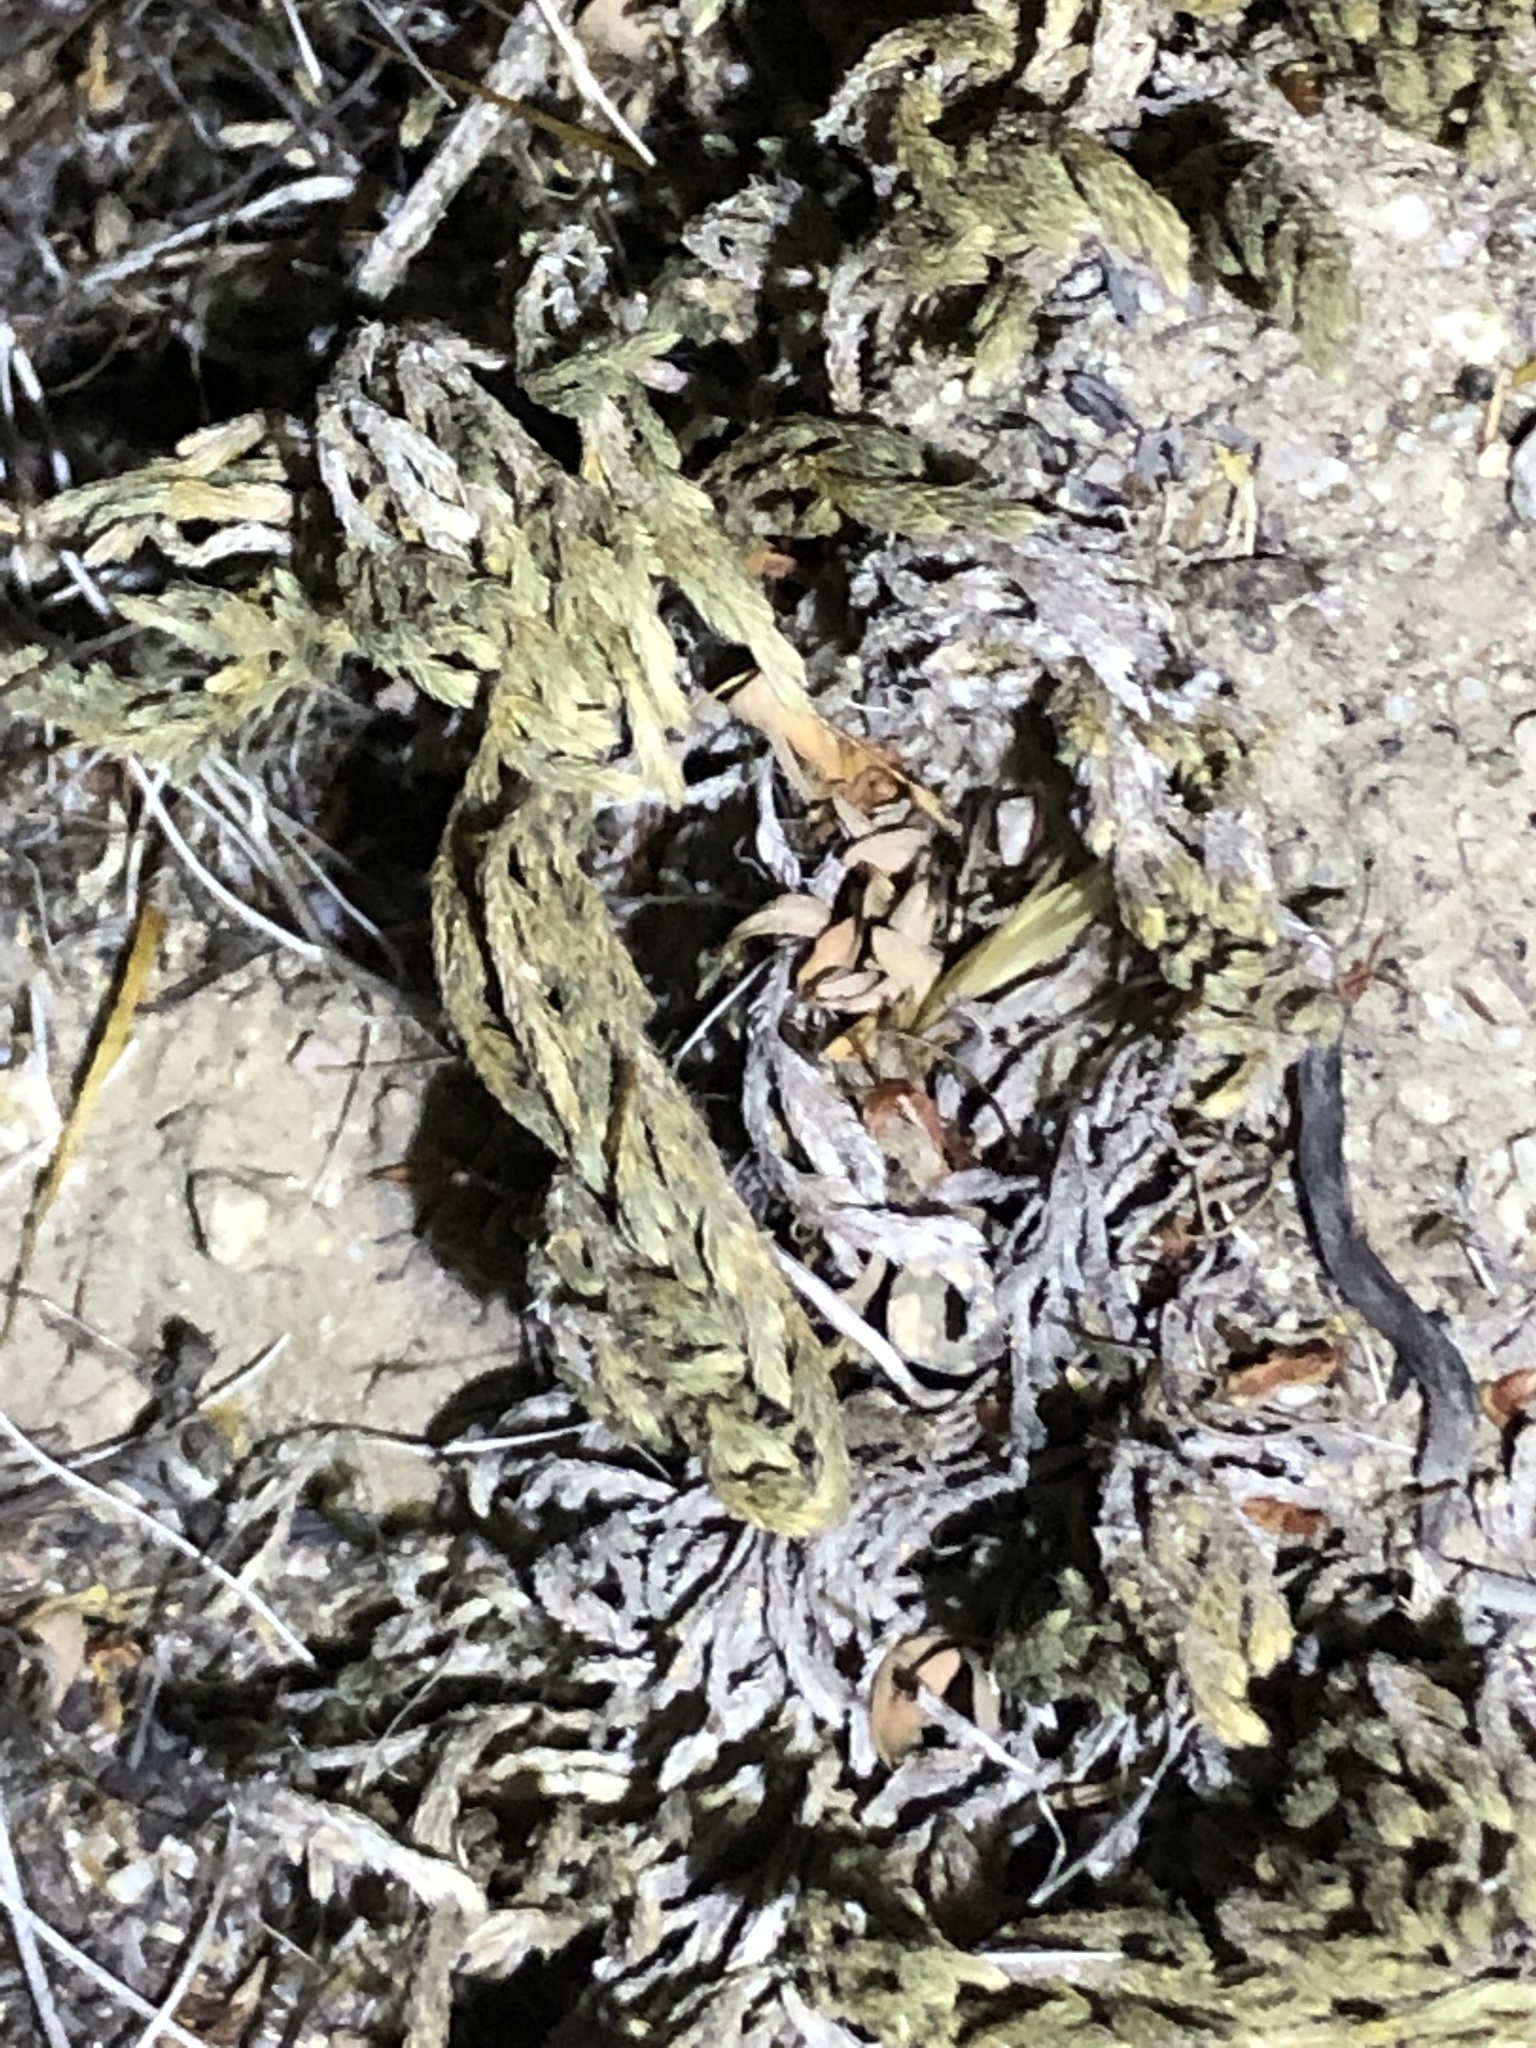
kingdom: Plantae
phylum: Tracheophyta
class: Lycopodiopsida
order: Selaginellales
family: Selaginellaceae
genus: Selaginella
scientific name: Selaginella bigelovii
